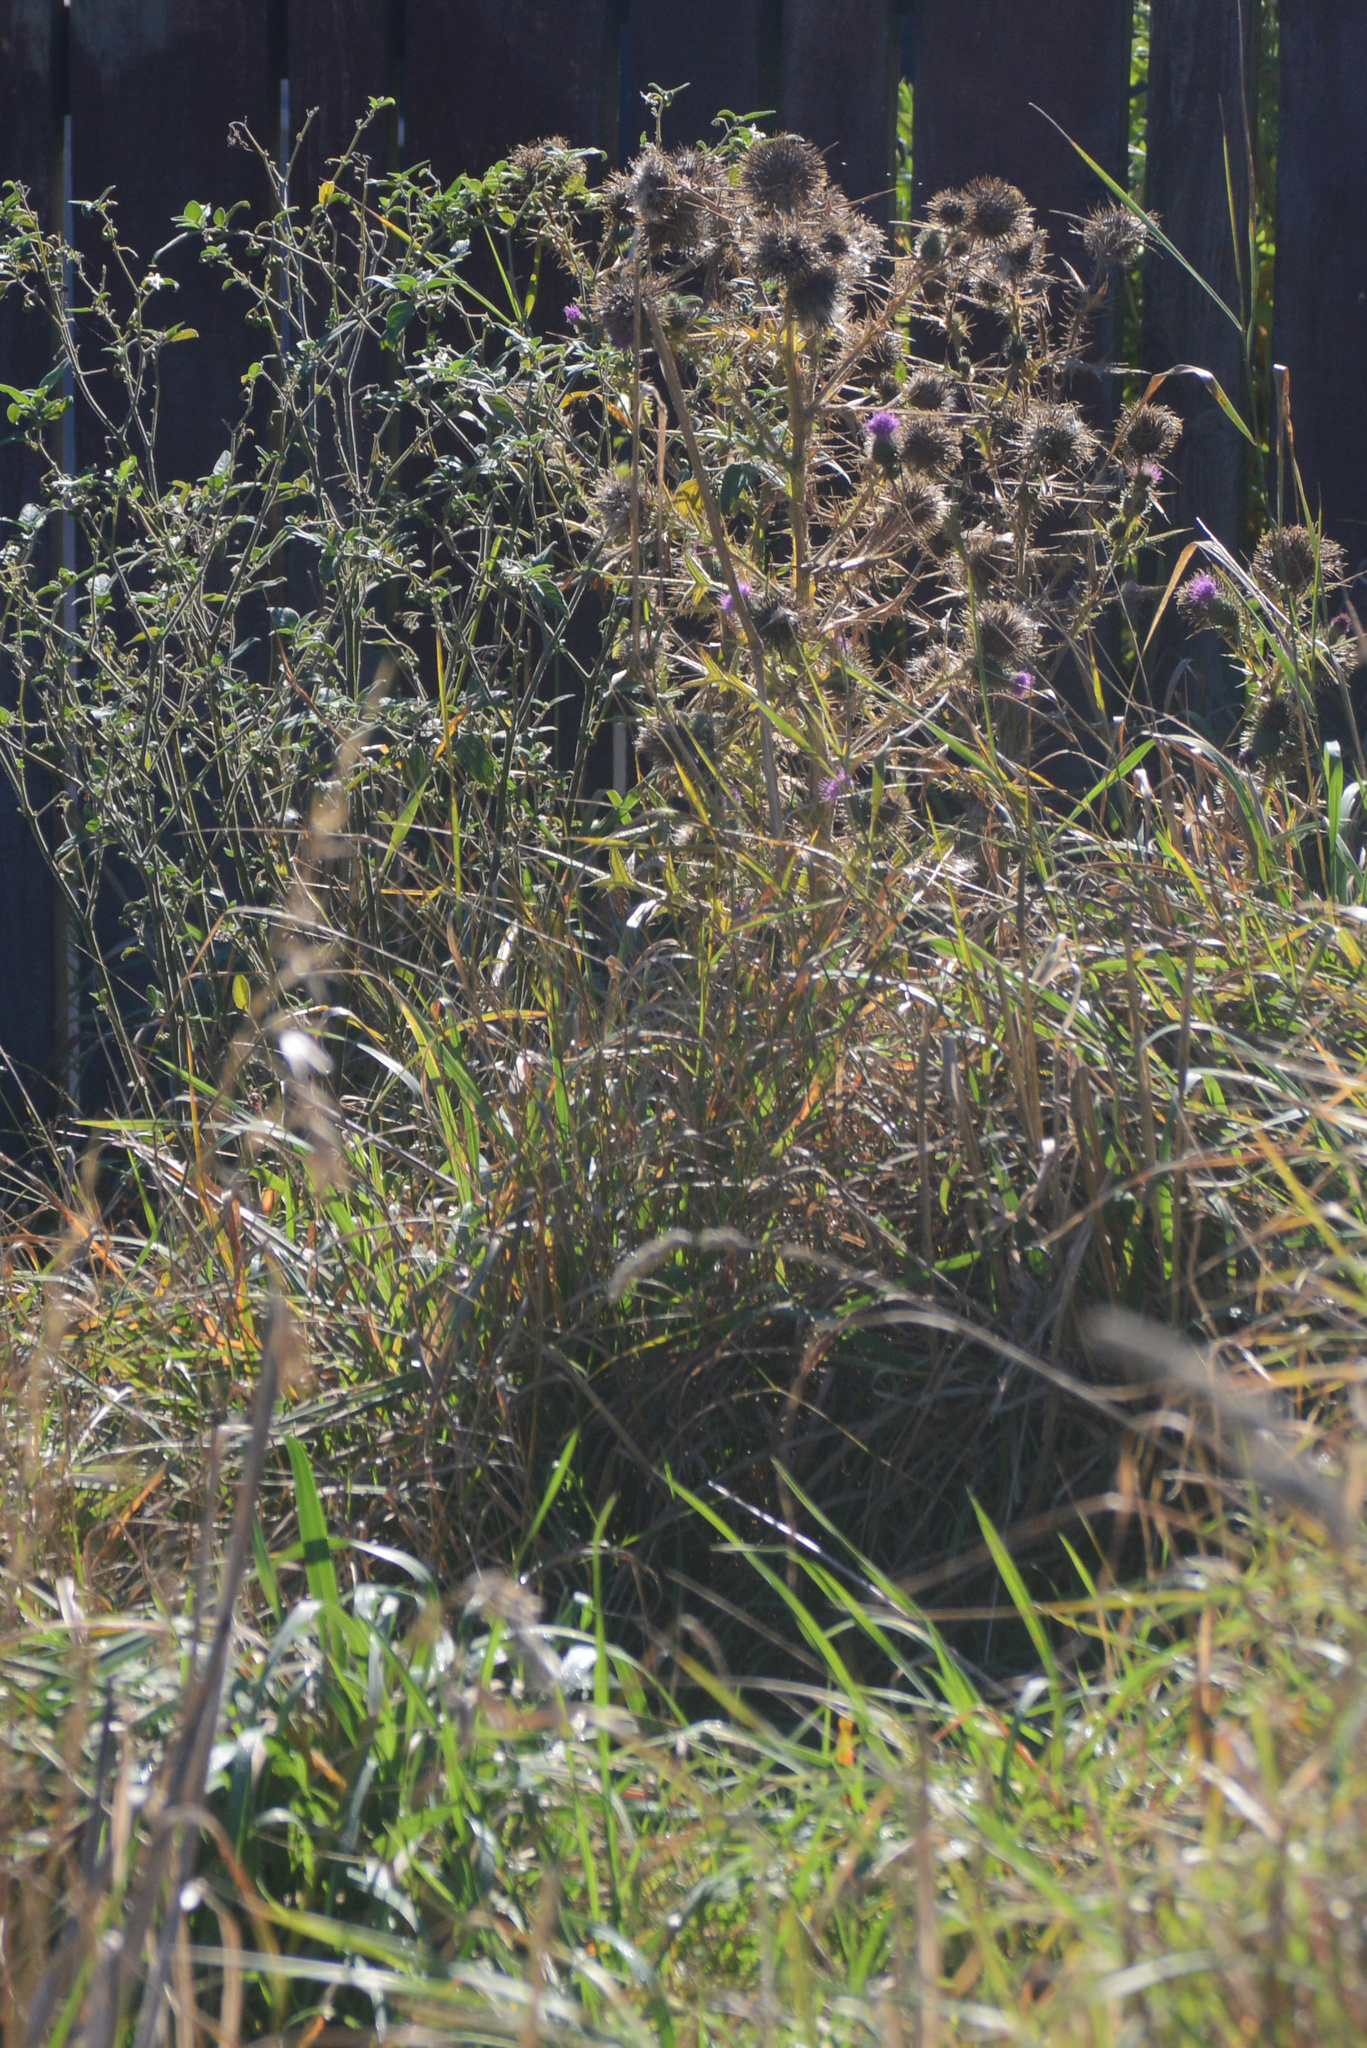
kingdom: Plantae
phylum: Tracheophyta
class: Magnoliopsida
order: Asterales
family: Asteraceae
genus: Cirsium
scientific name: Cirsium vulgare
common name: Bull thistle
